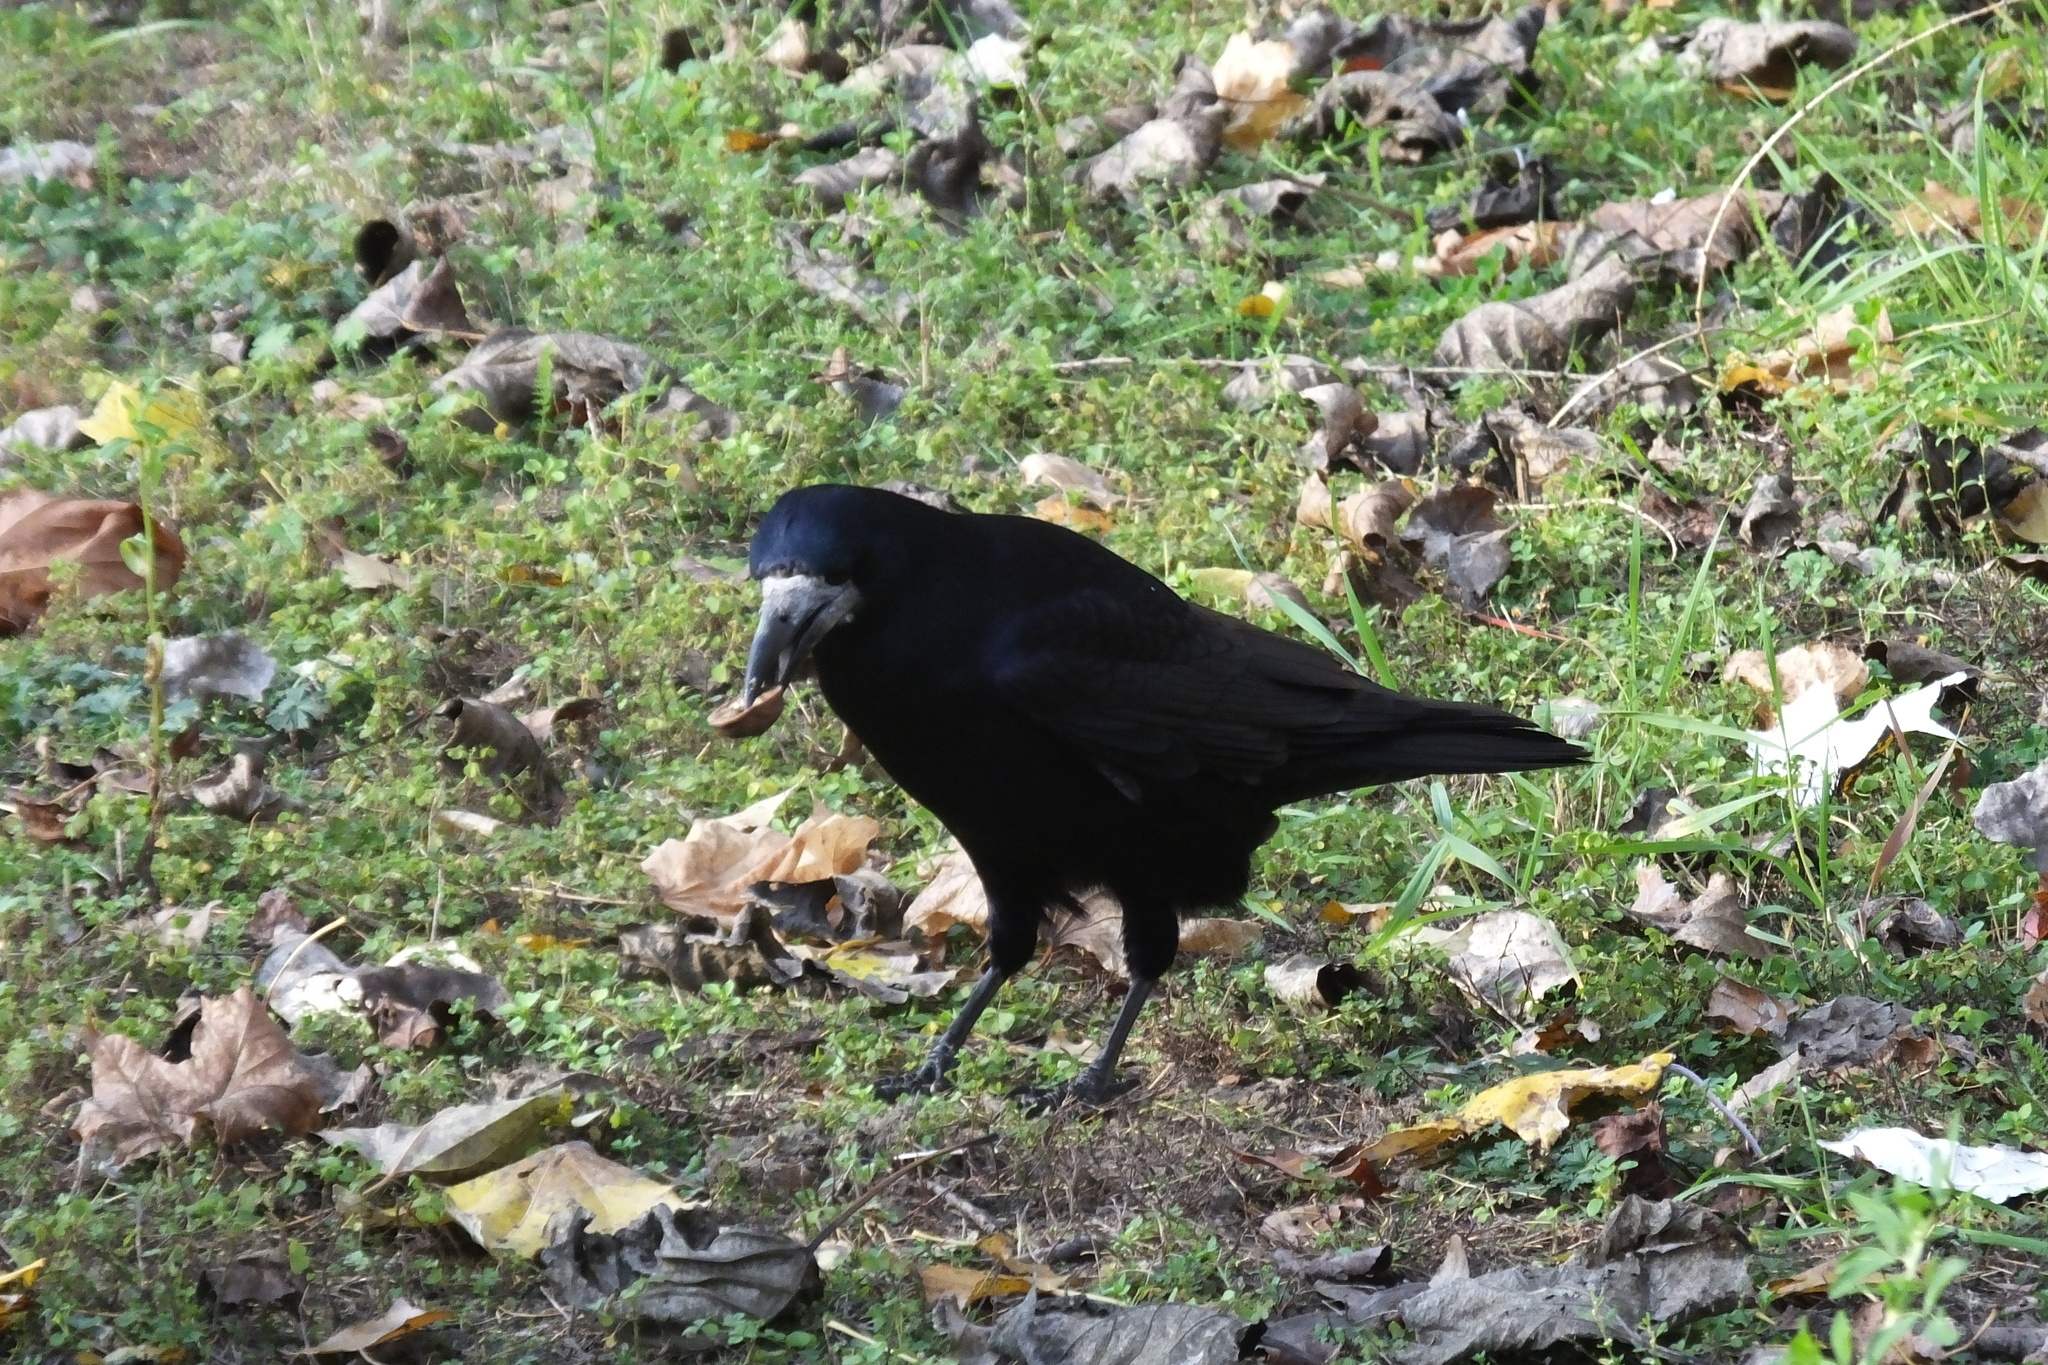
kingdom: Animalia
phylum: Chordata
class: Aves
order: Passeriformes
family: Corvidae
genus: Corvus
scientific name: Corvus frugilegus
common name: Rook
